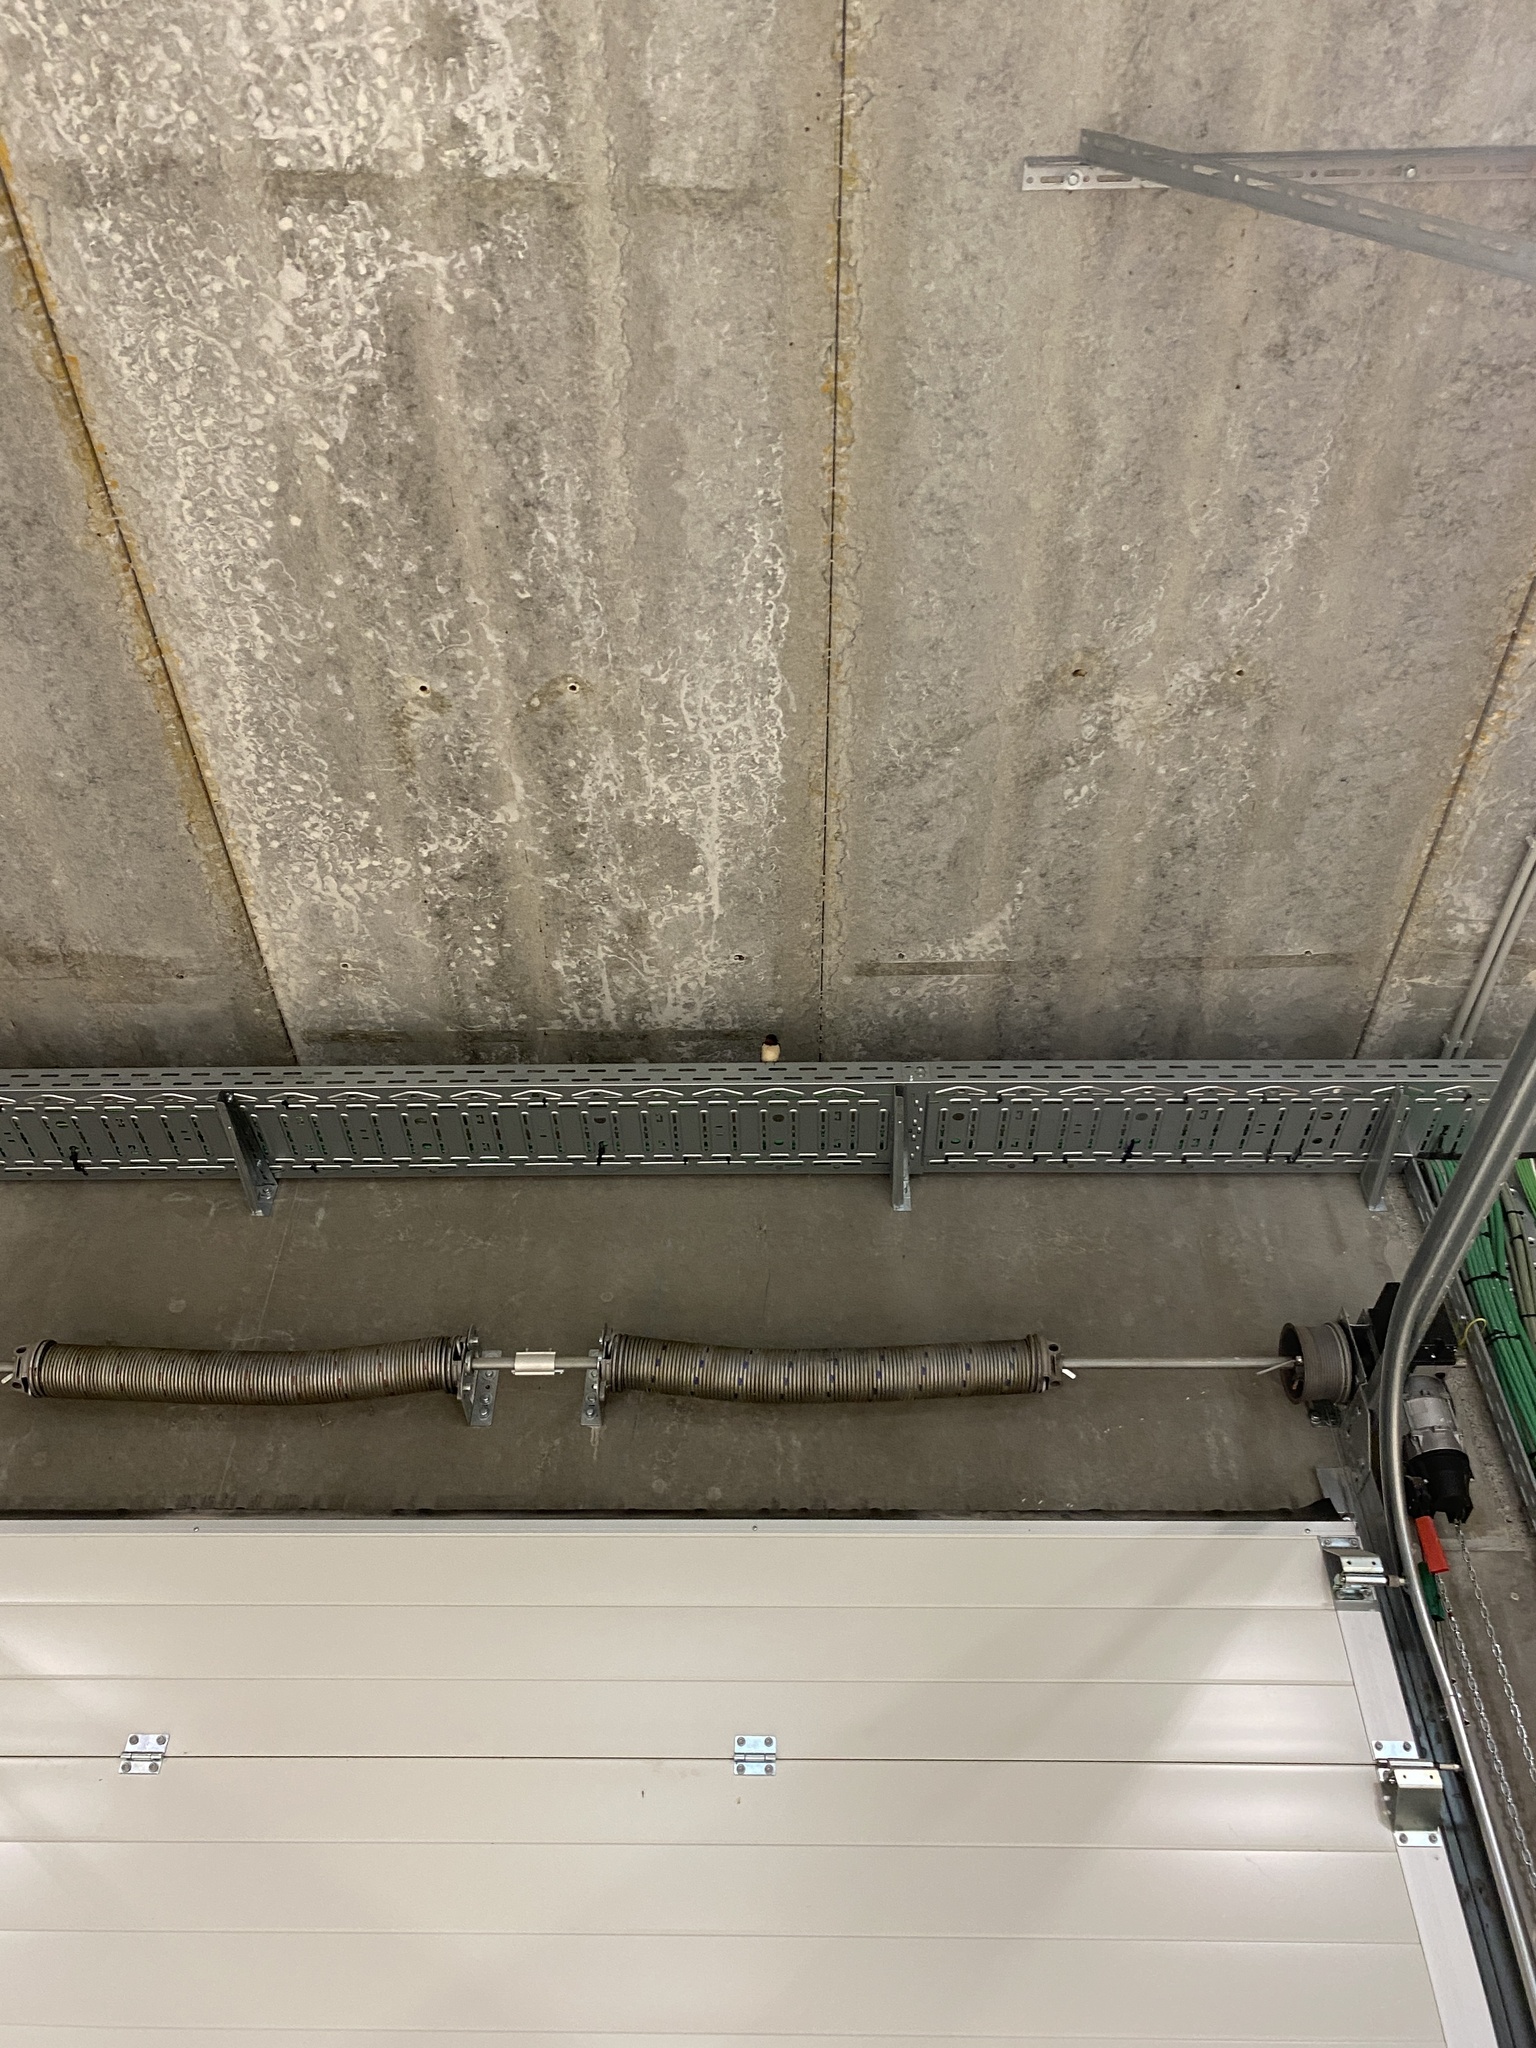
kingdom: Animalia
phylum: Chordata
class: Aves
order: Passeriformes
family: Hirundinidae
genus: Hirundo
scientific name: Hirundo rustica
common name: Barn swallow
